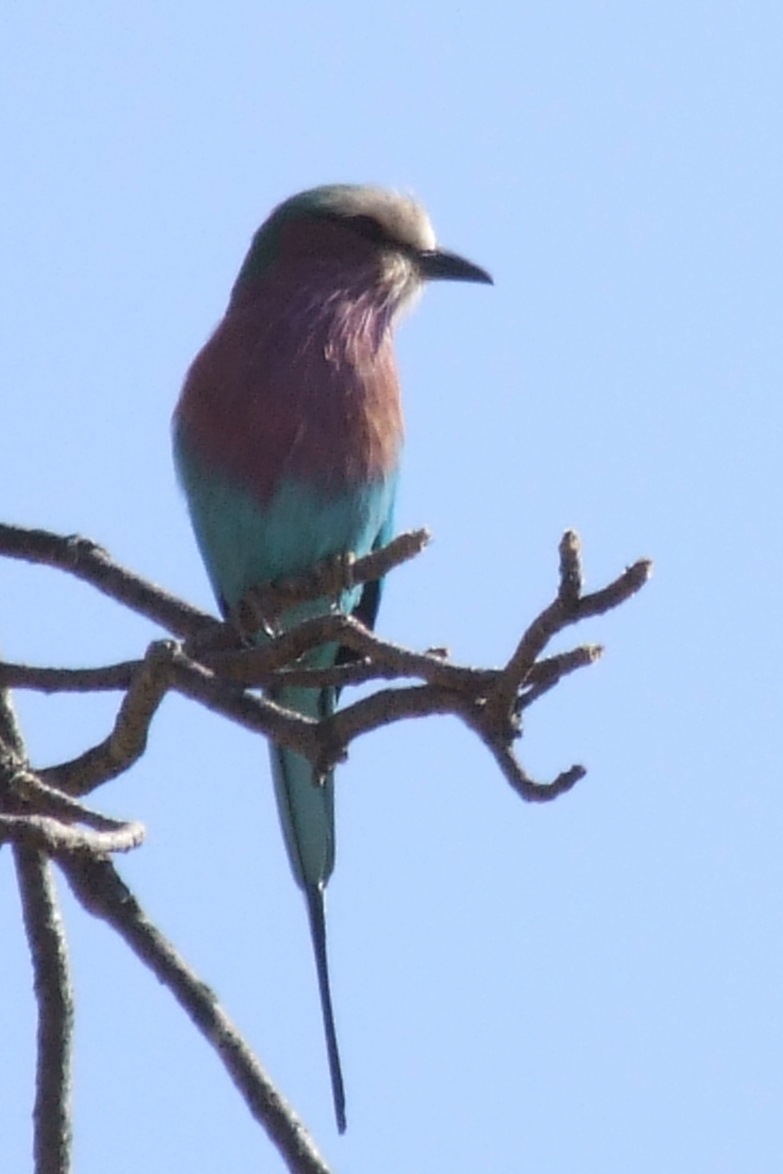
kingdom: Animalia
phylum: Chordata
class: Aves
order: Coraciiformes
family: Coraciidae
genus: Coracias
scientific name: Coracias caudatus
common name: Lilac-breasted roller
